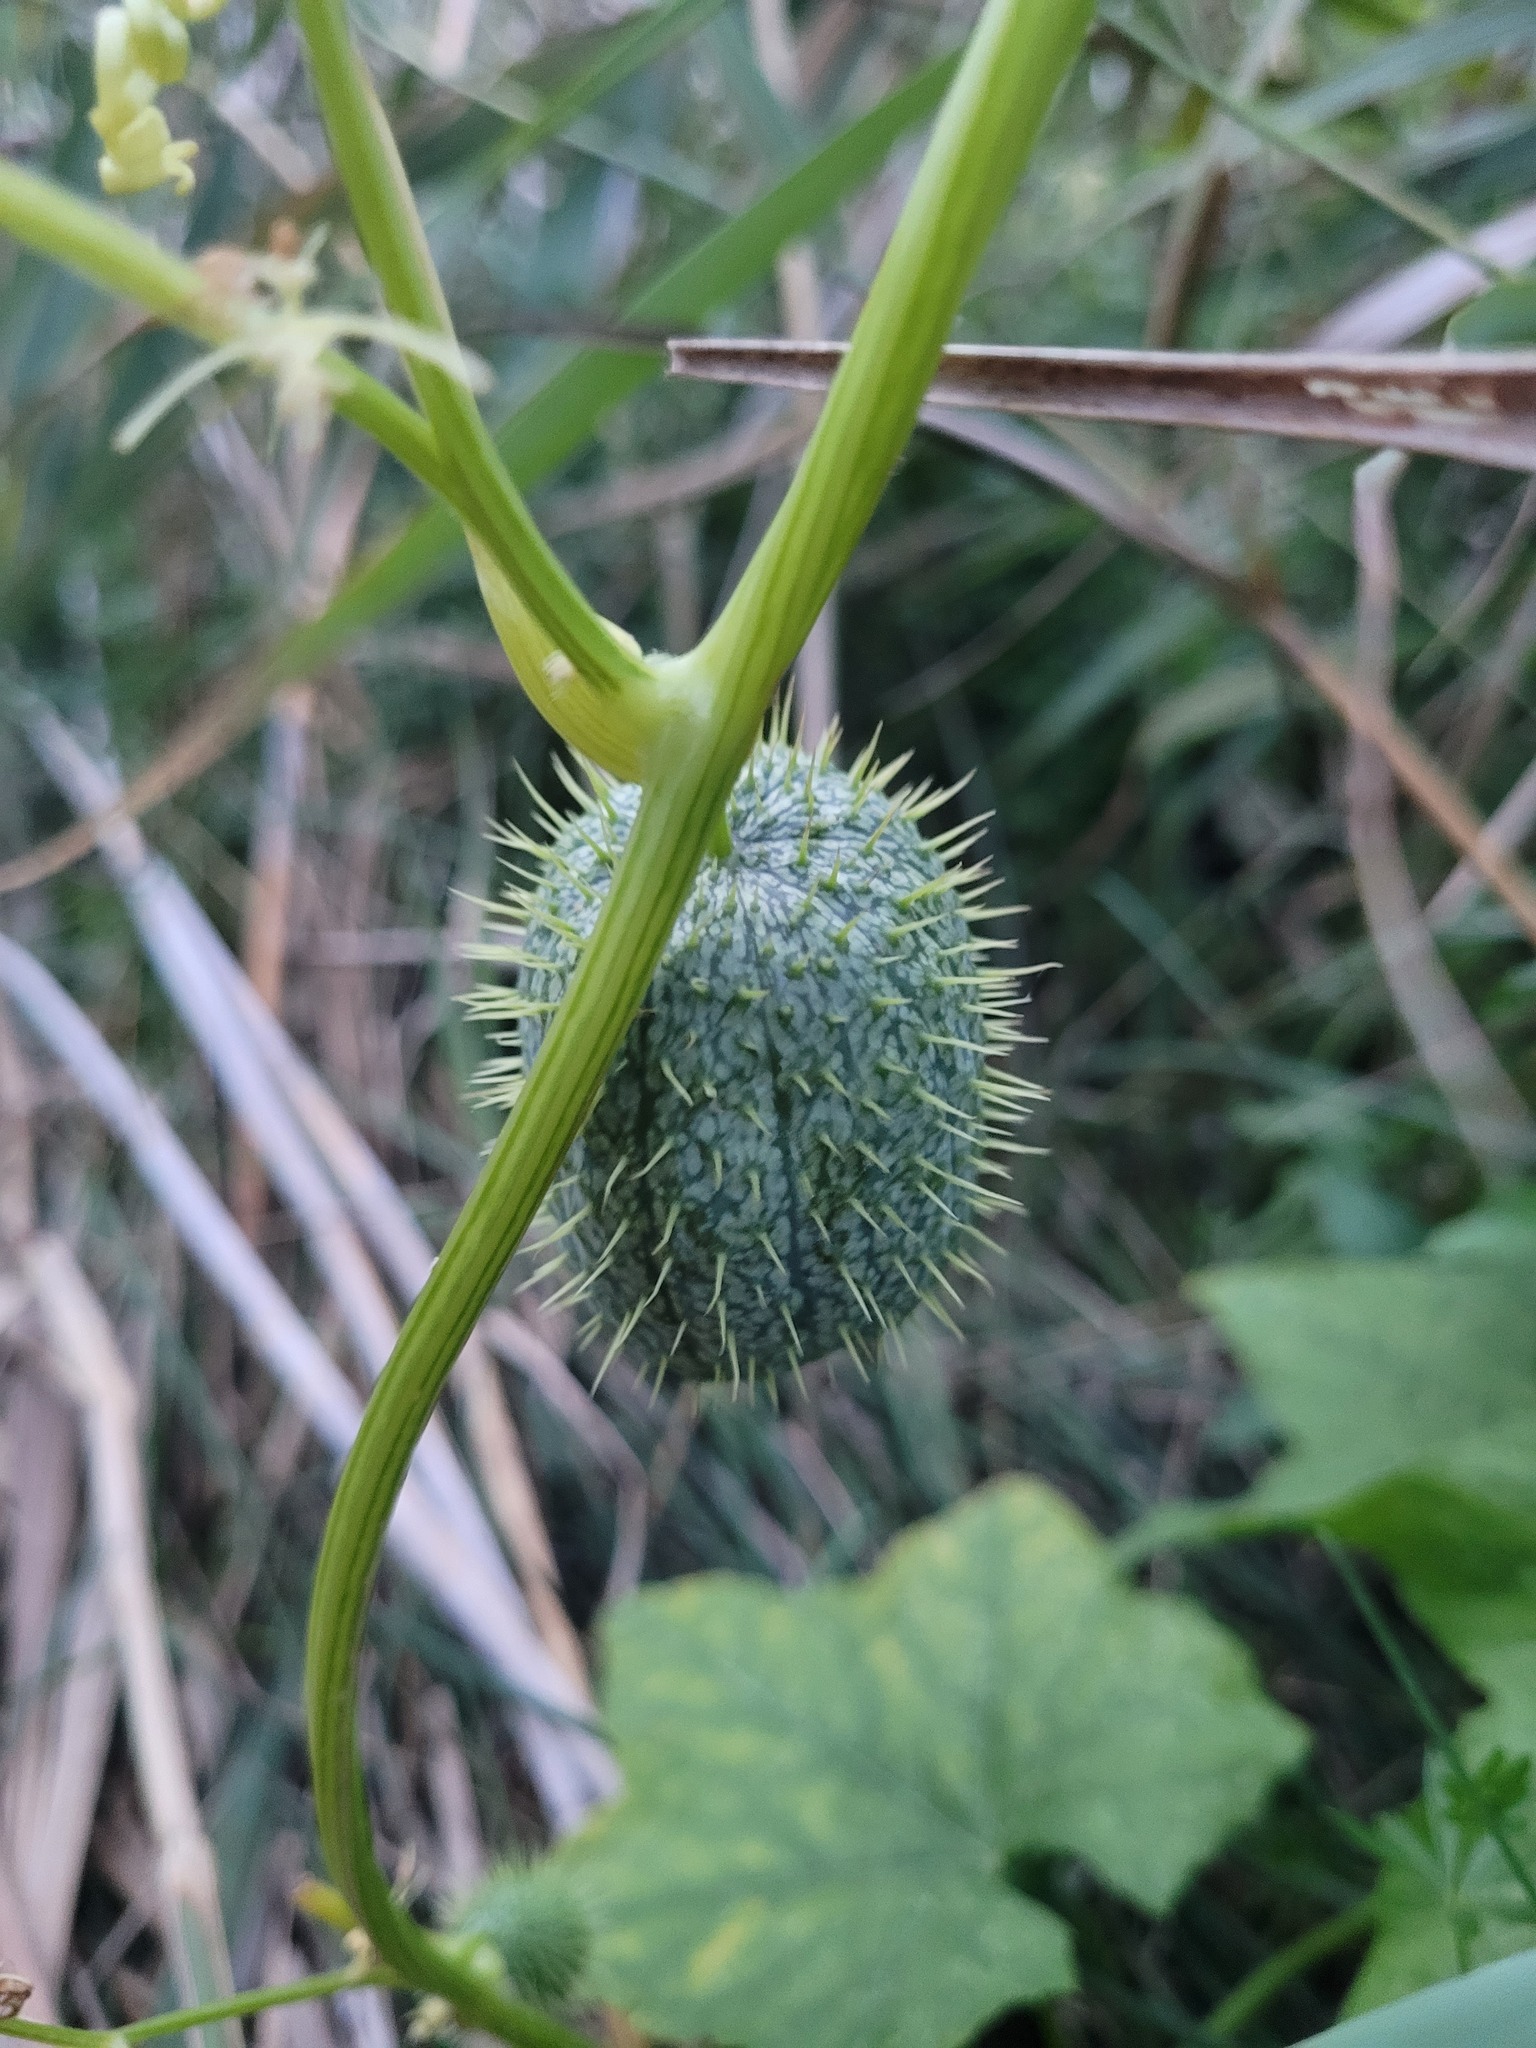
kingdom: Plantae
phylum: Tracheophyta
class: Magnoliopsida
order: Cucurbitales
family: Cucurbitaceae
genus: Echinocystis
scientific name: Echinocystis lobata
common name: Wild cucumber
